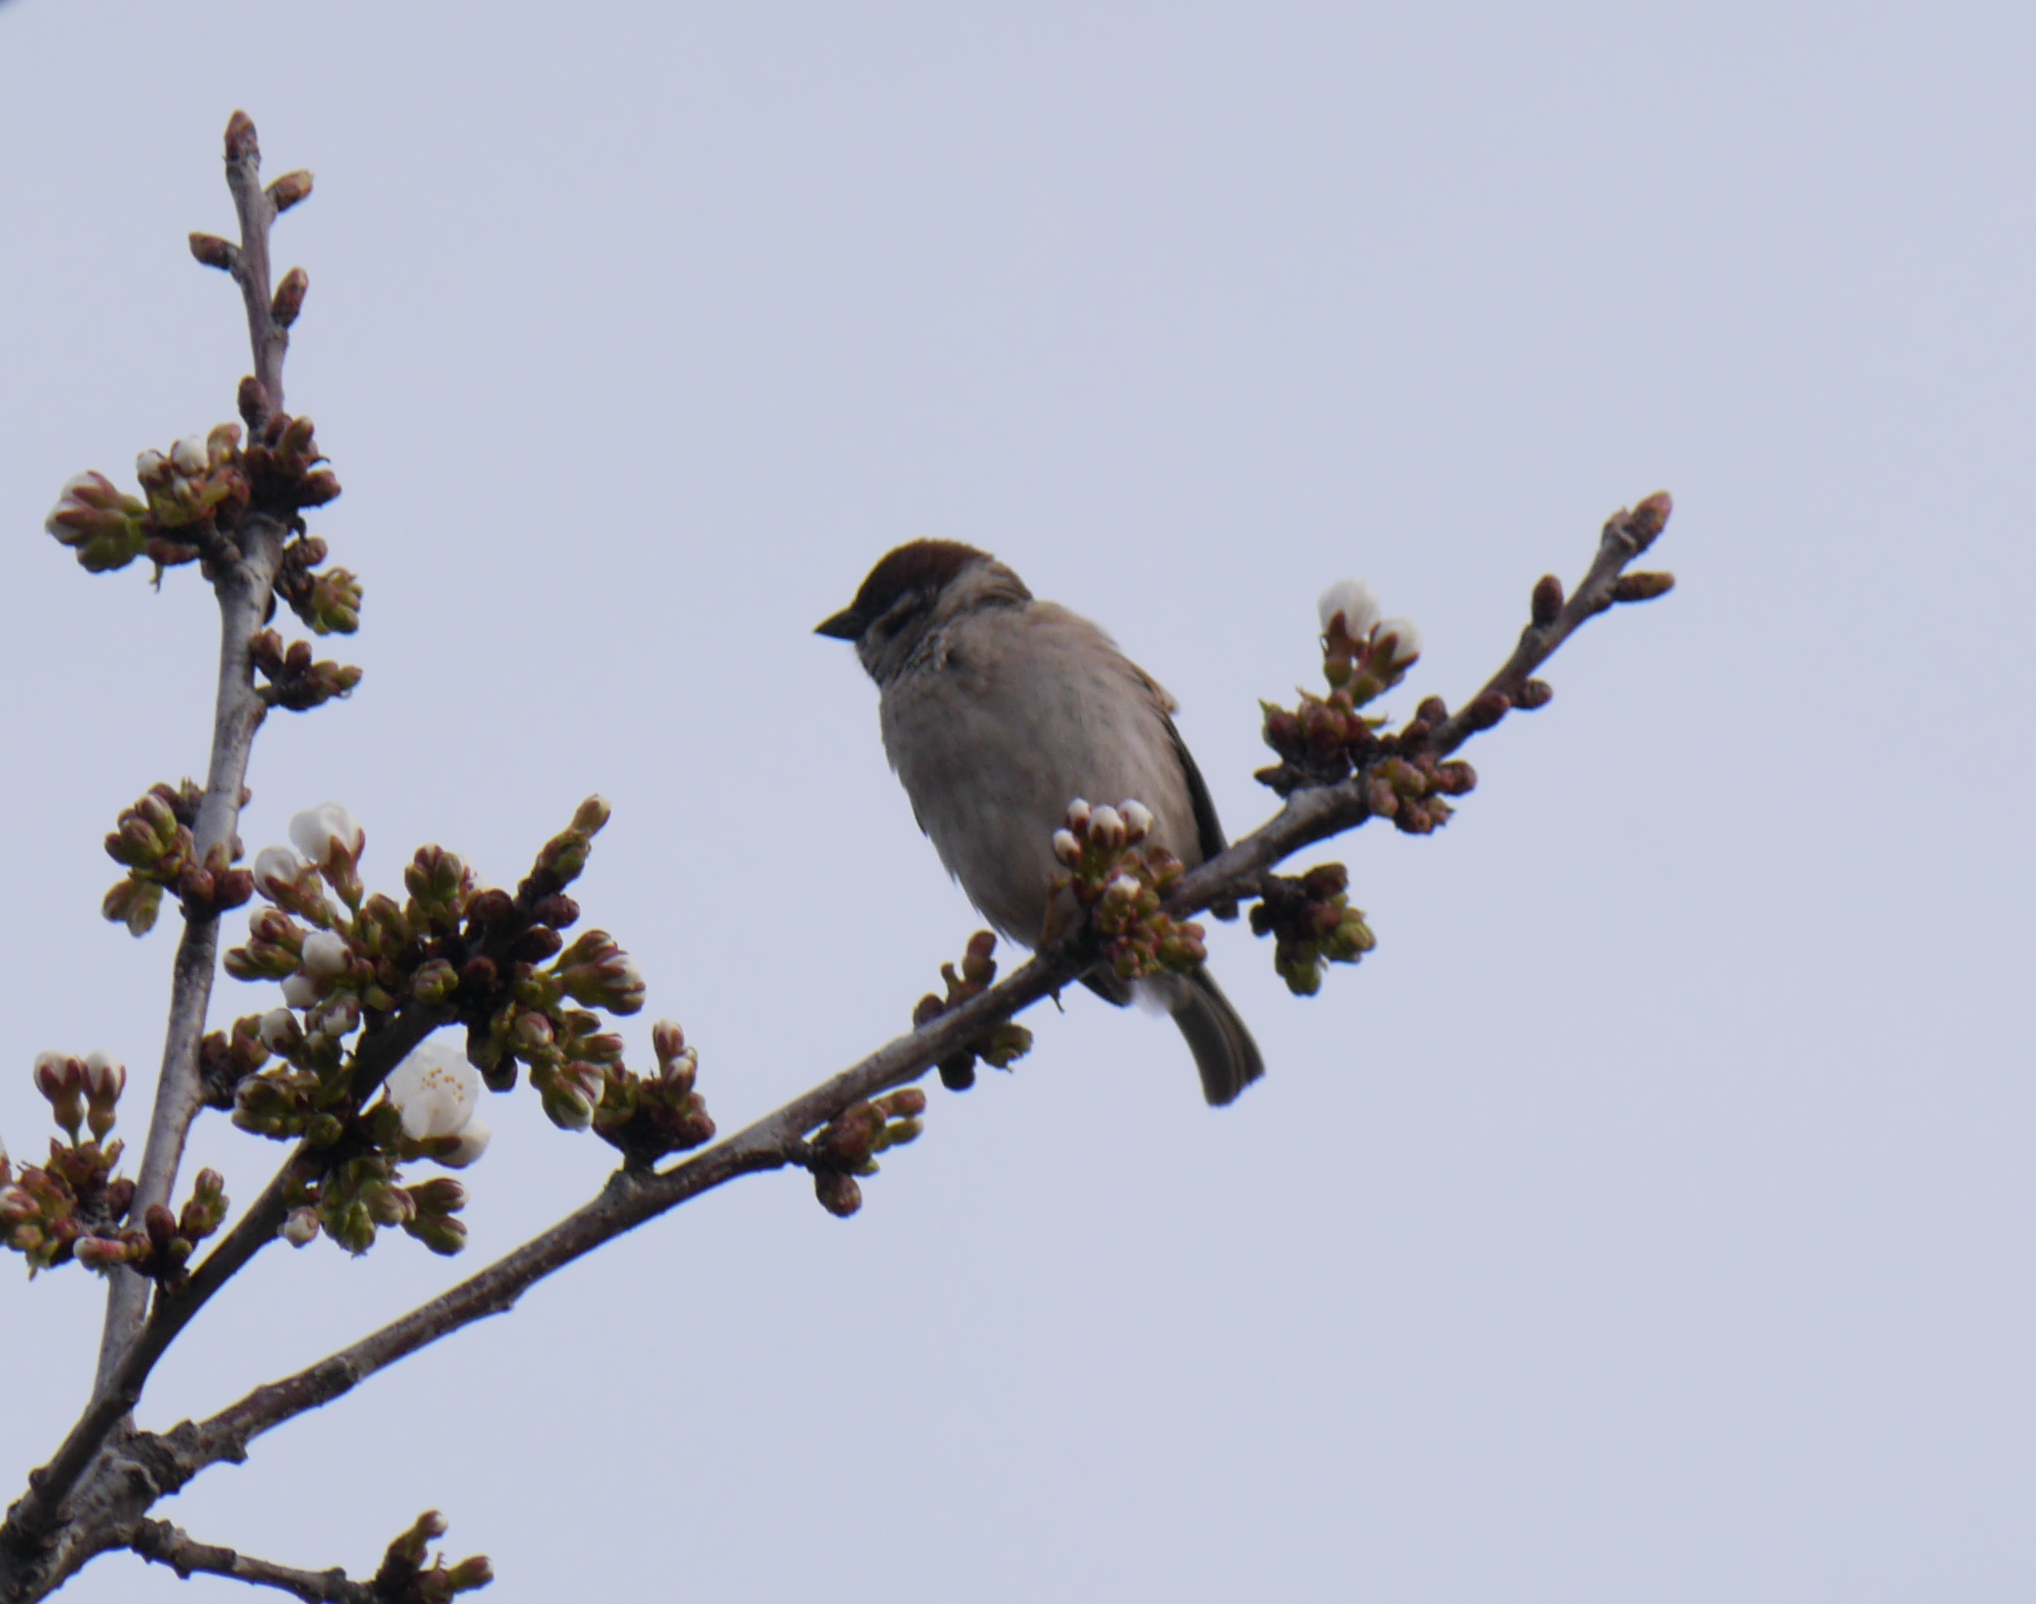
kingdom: Animalia
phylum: Chordata
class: Aves
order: Passeriformes
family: Passeridae
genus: Passer
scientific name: Passer montanus
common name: Eurasian tree sparrow
